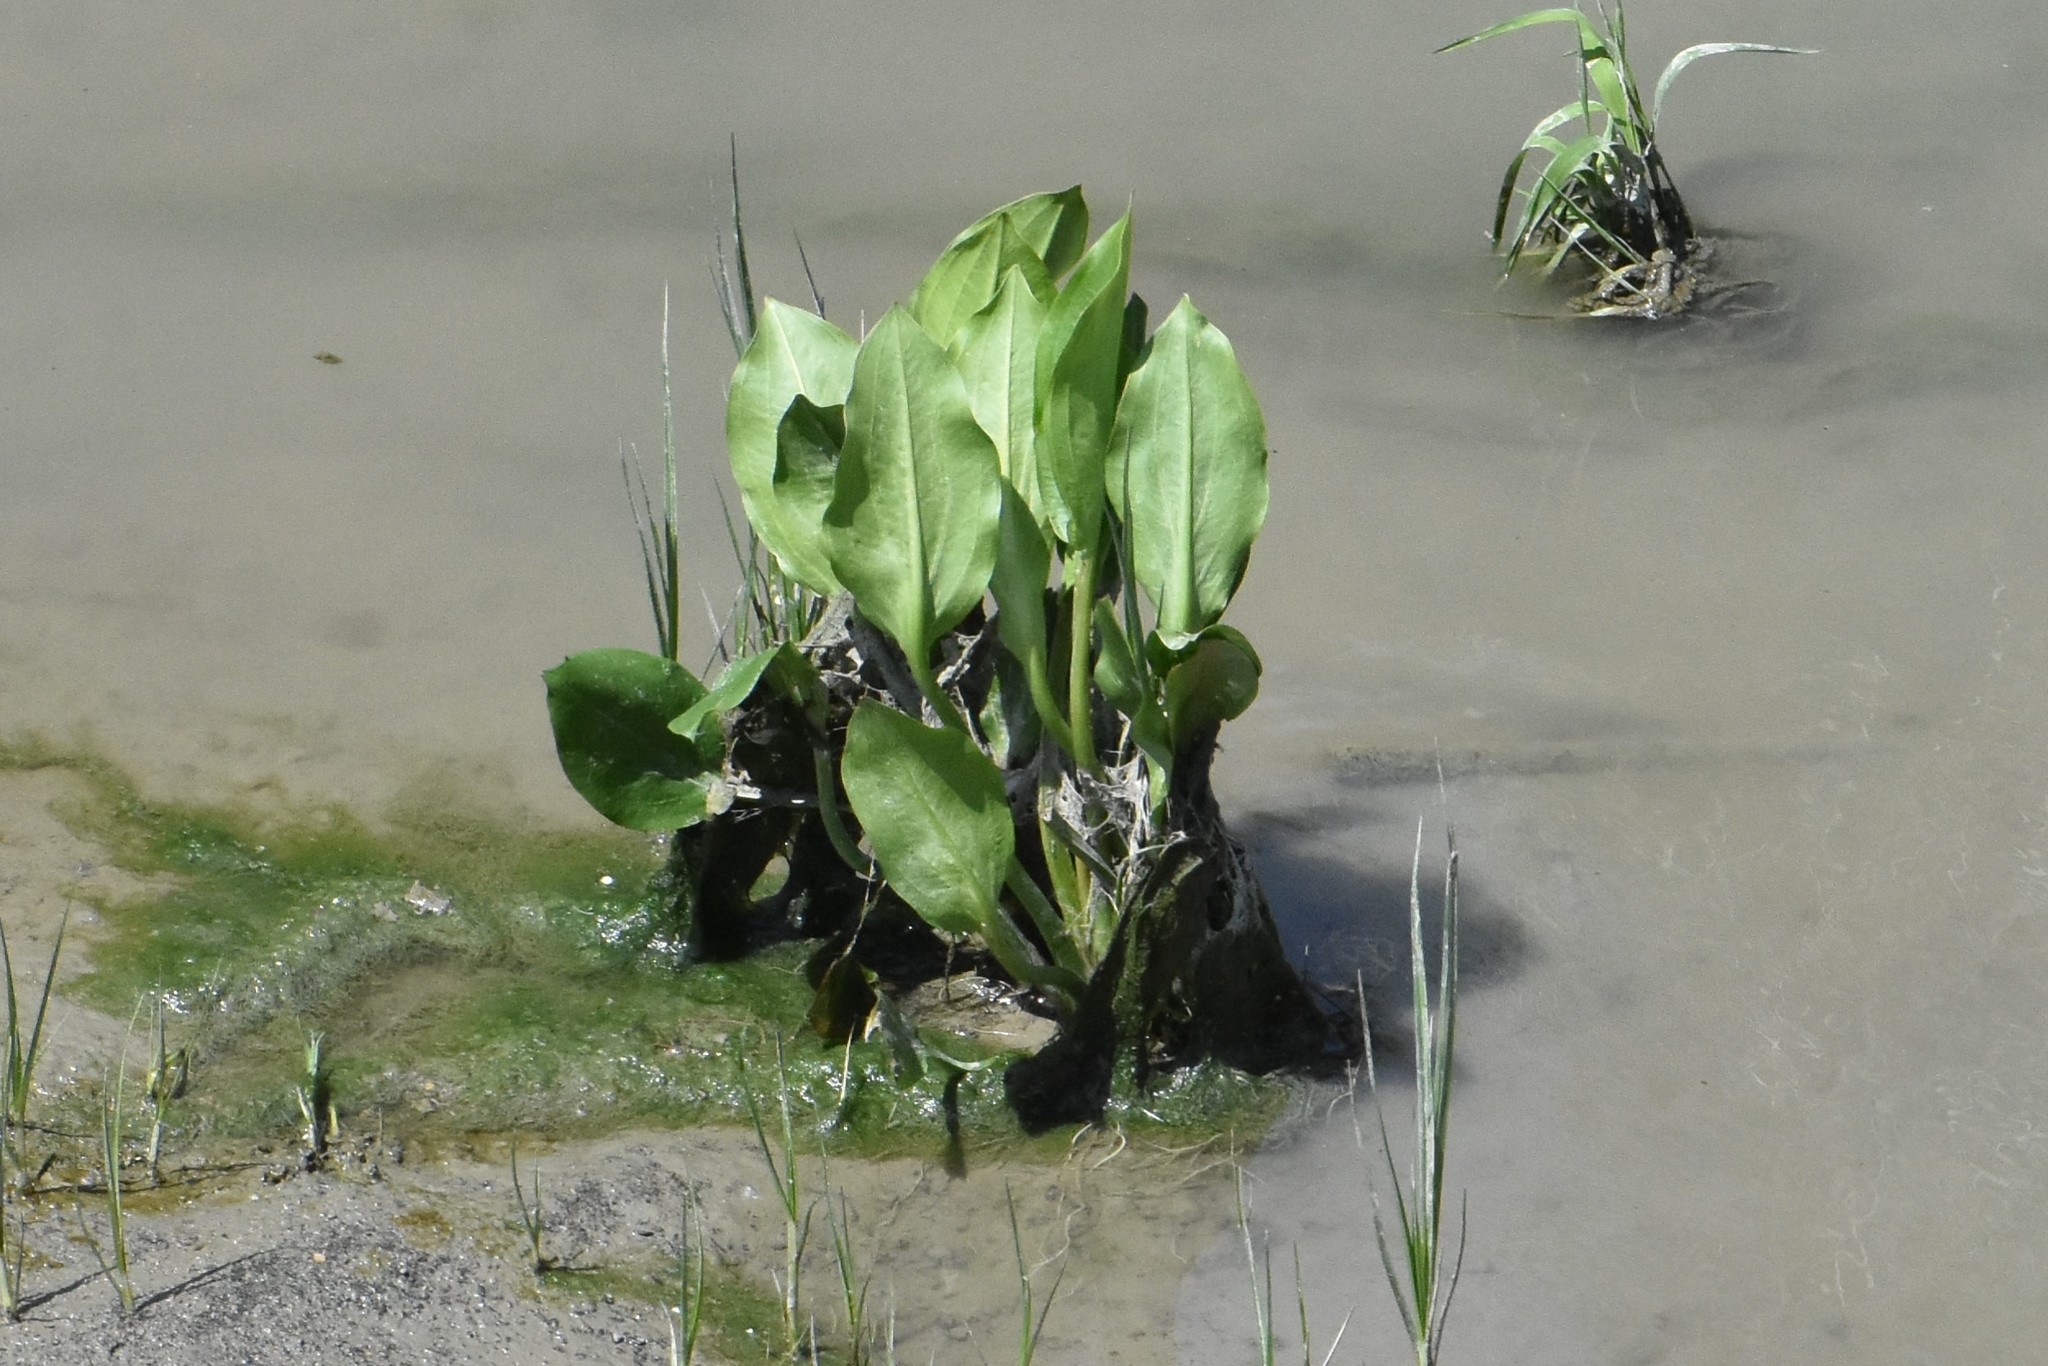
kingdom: Plantae
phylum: Tracheophyta
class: Liliopsida
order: Alismatales
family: Alismataceae
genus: Alisma
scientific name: Alisma lanceolatum
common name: Narrow-leaved water-plantain
